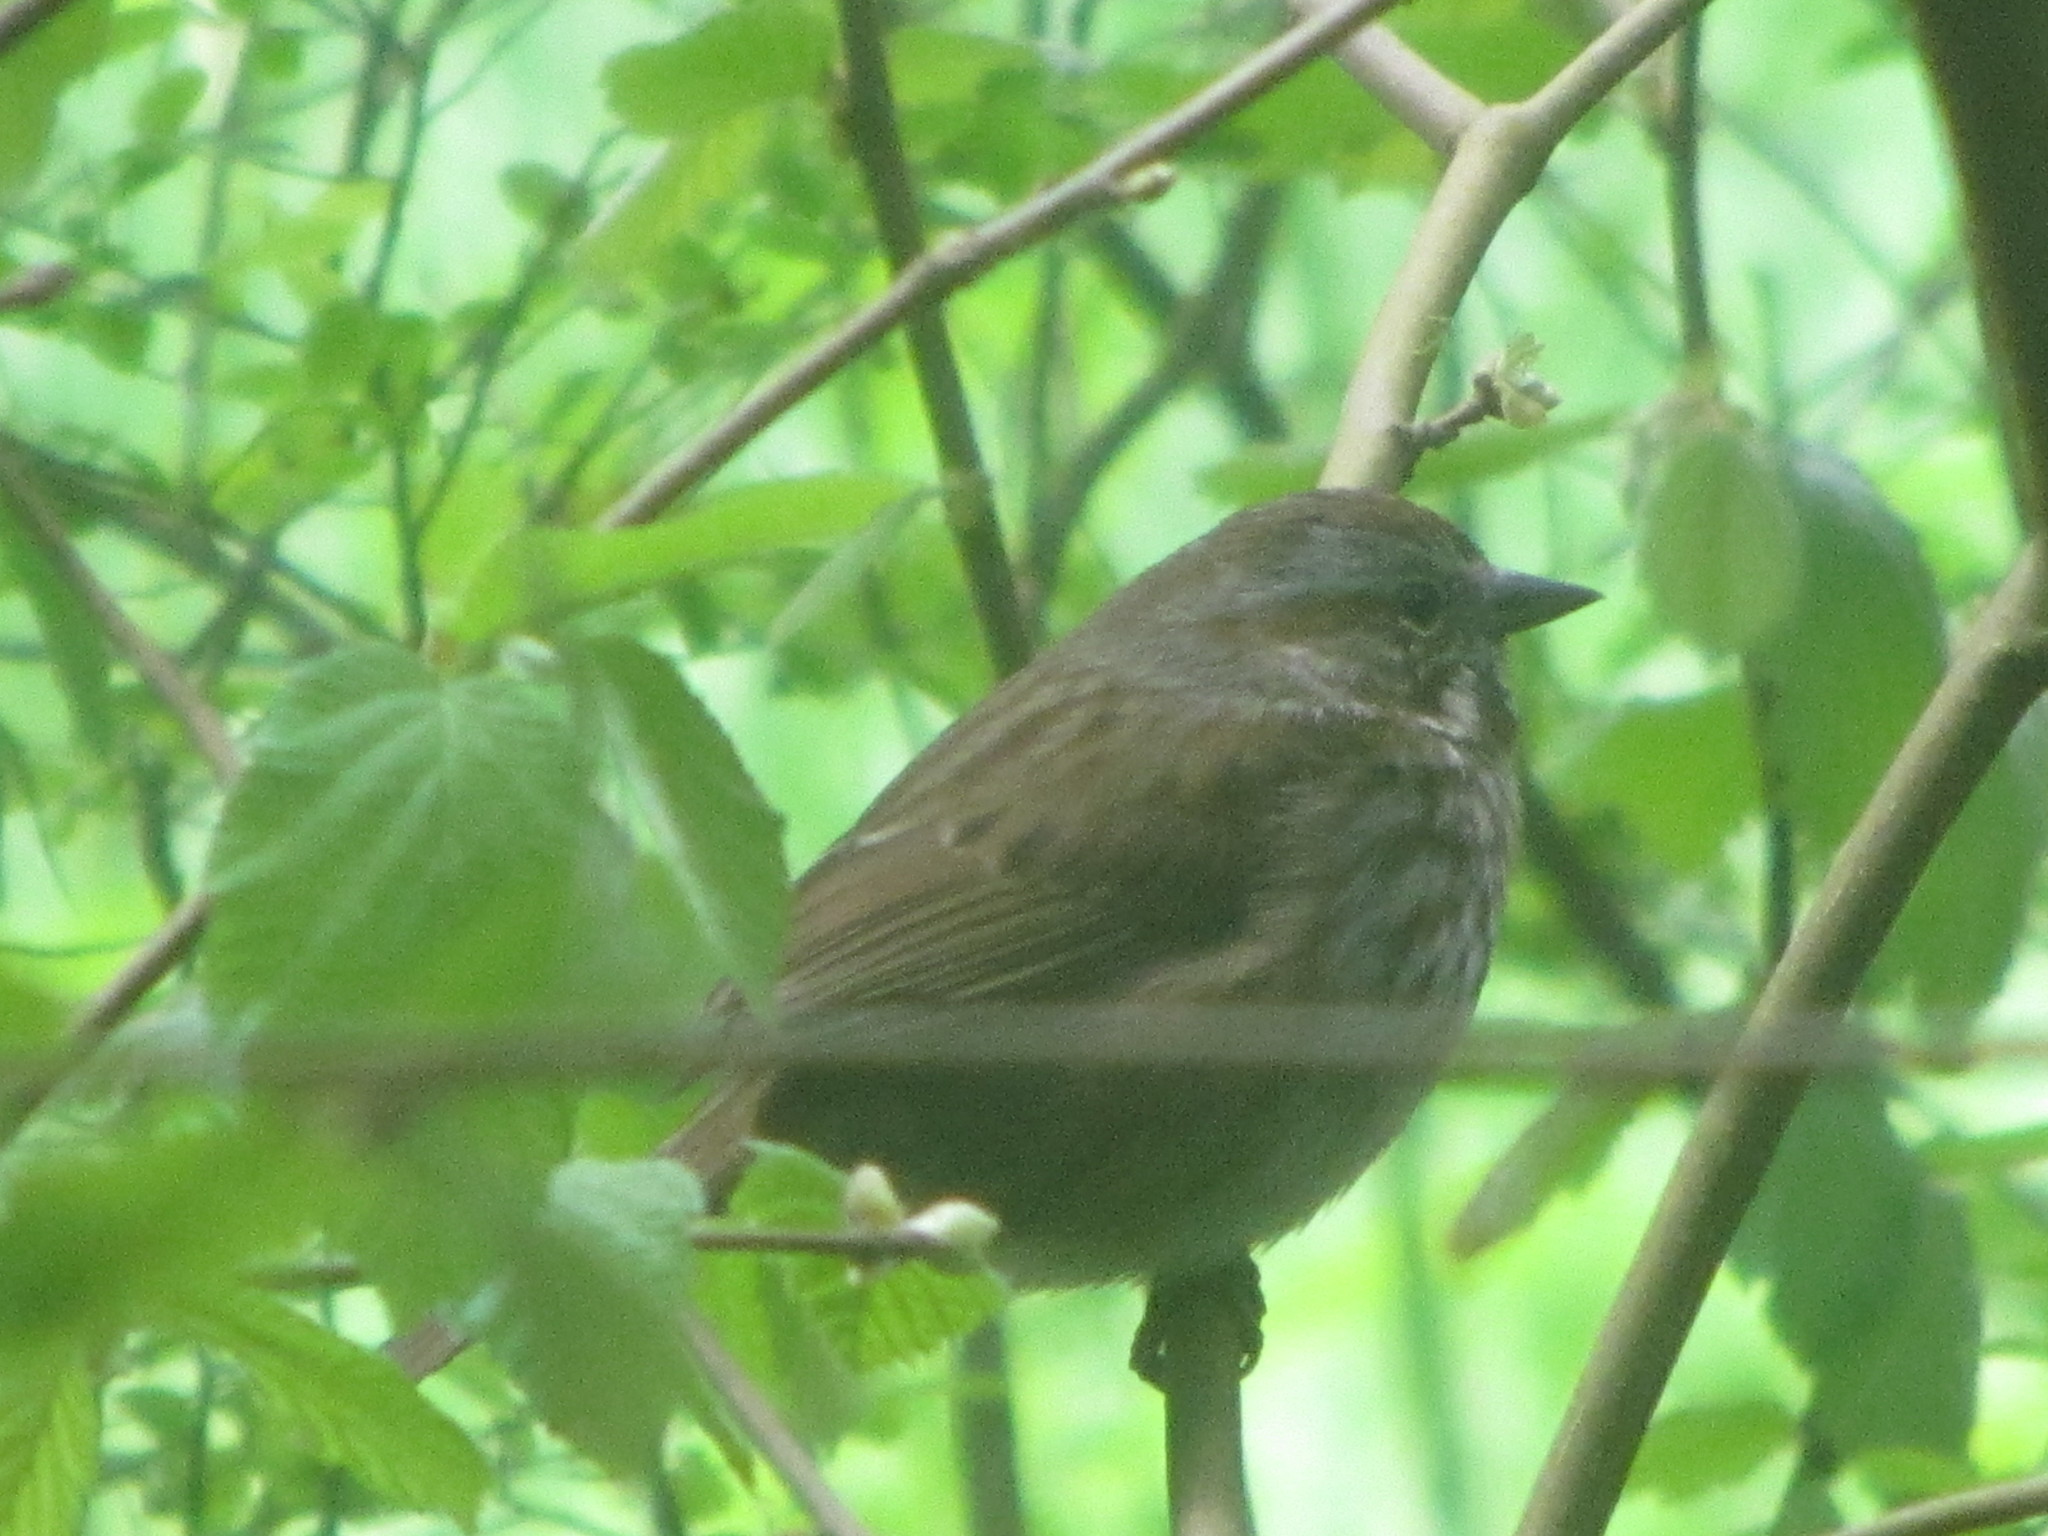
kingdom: Animalia
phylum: Chordata
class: Aves
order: Passeriformes
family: Passerellidae
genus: Melospiza
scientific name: Melospiza melodia
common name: Song sparrow
